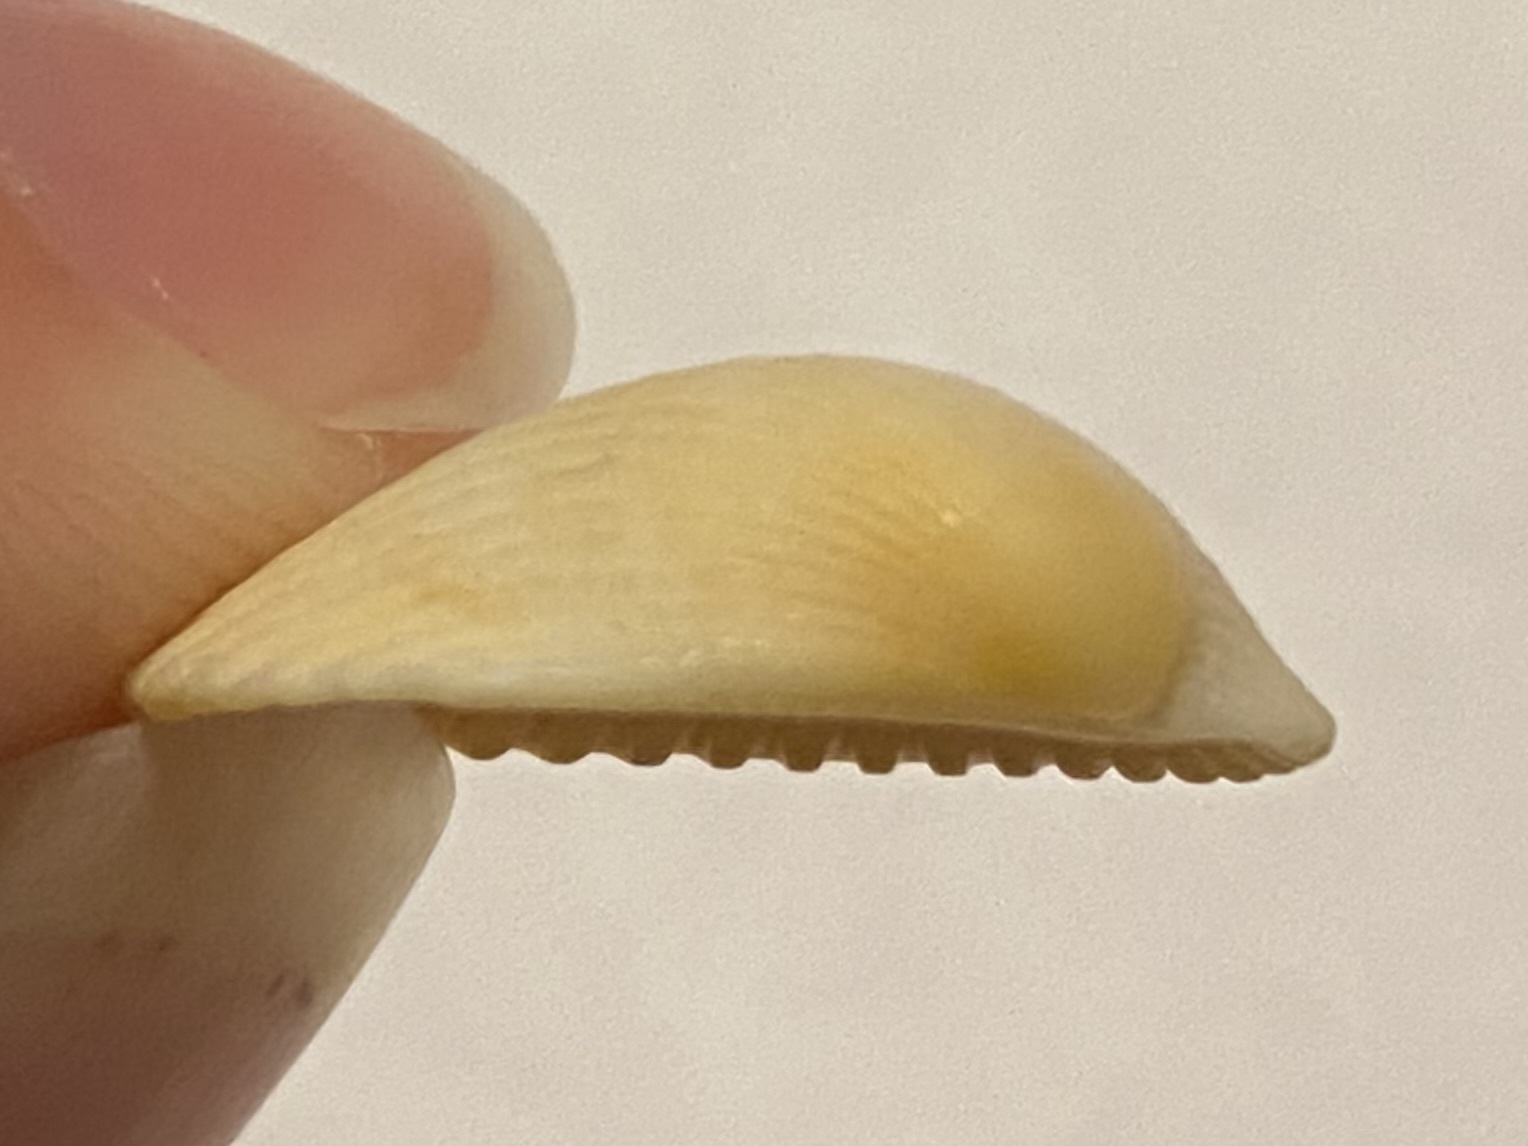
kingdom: Animalia
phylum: Mollusca
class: Bivalvia
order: Arcida
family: Arcidae
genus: Lunarca
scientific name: Lunarca ovalis
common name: Blood ark
